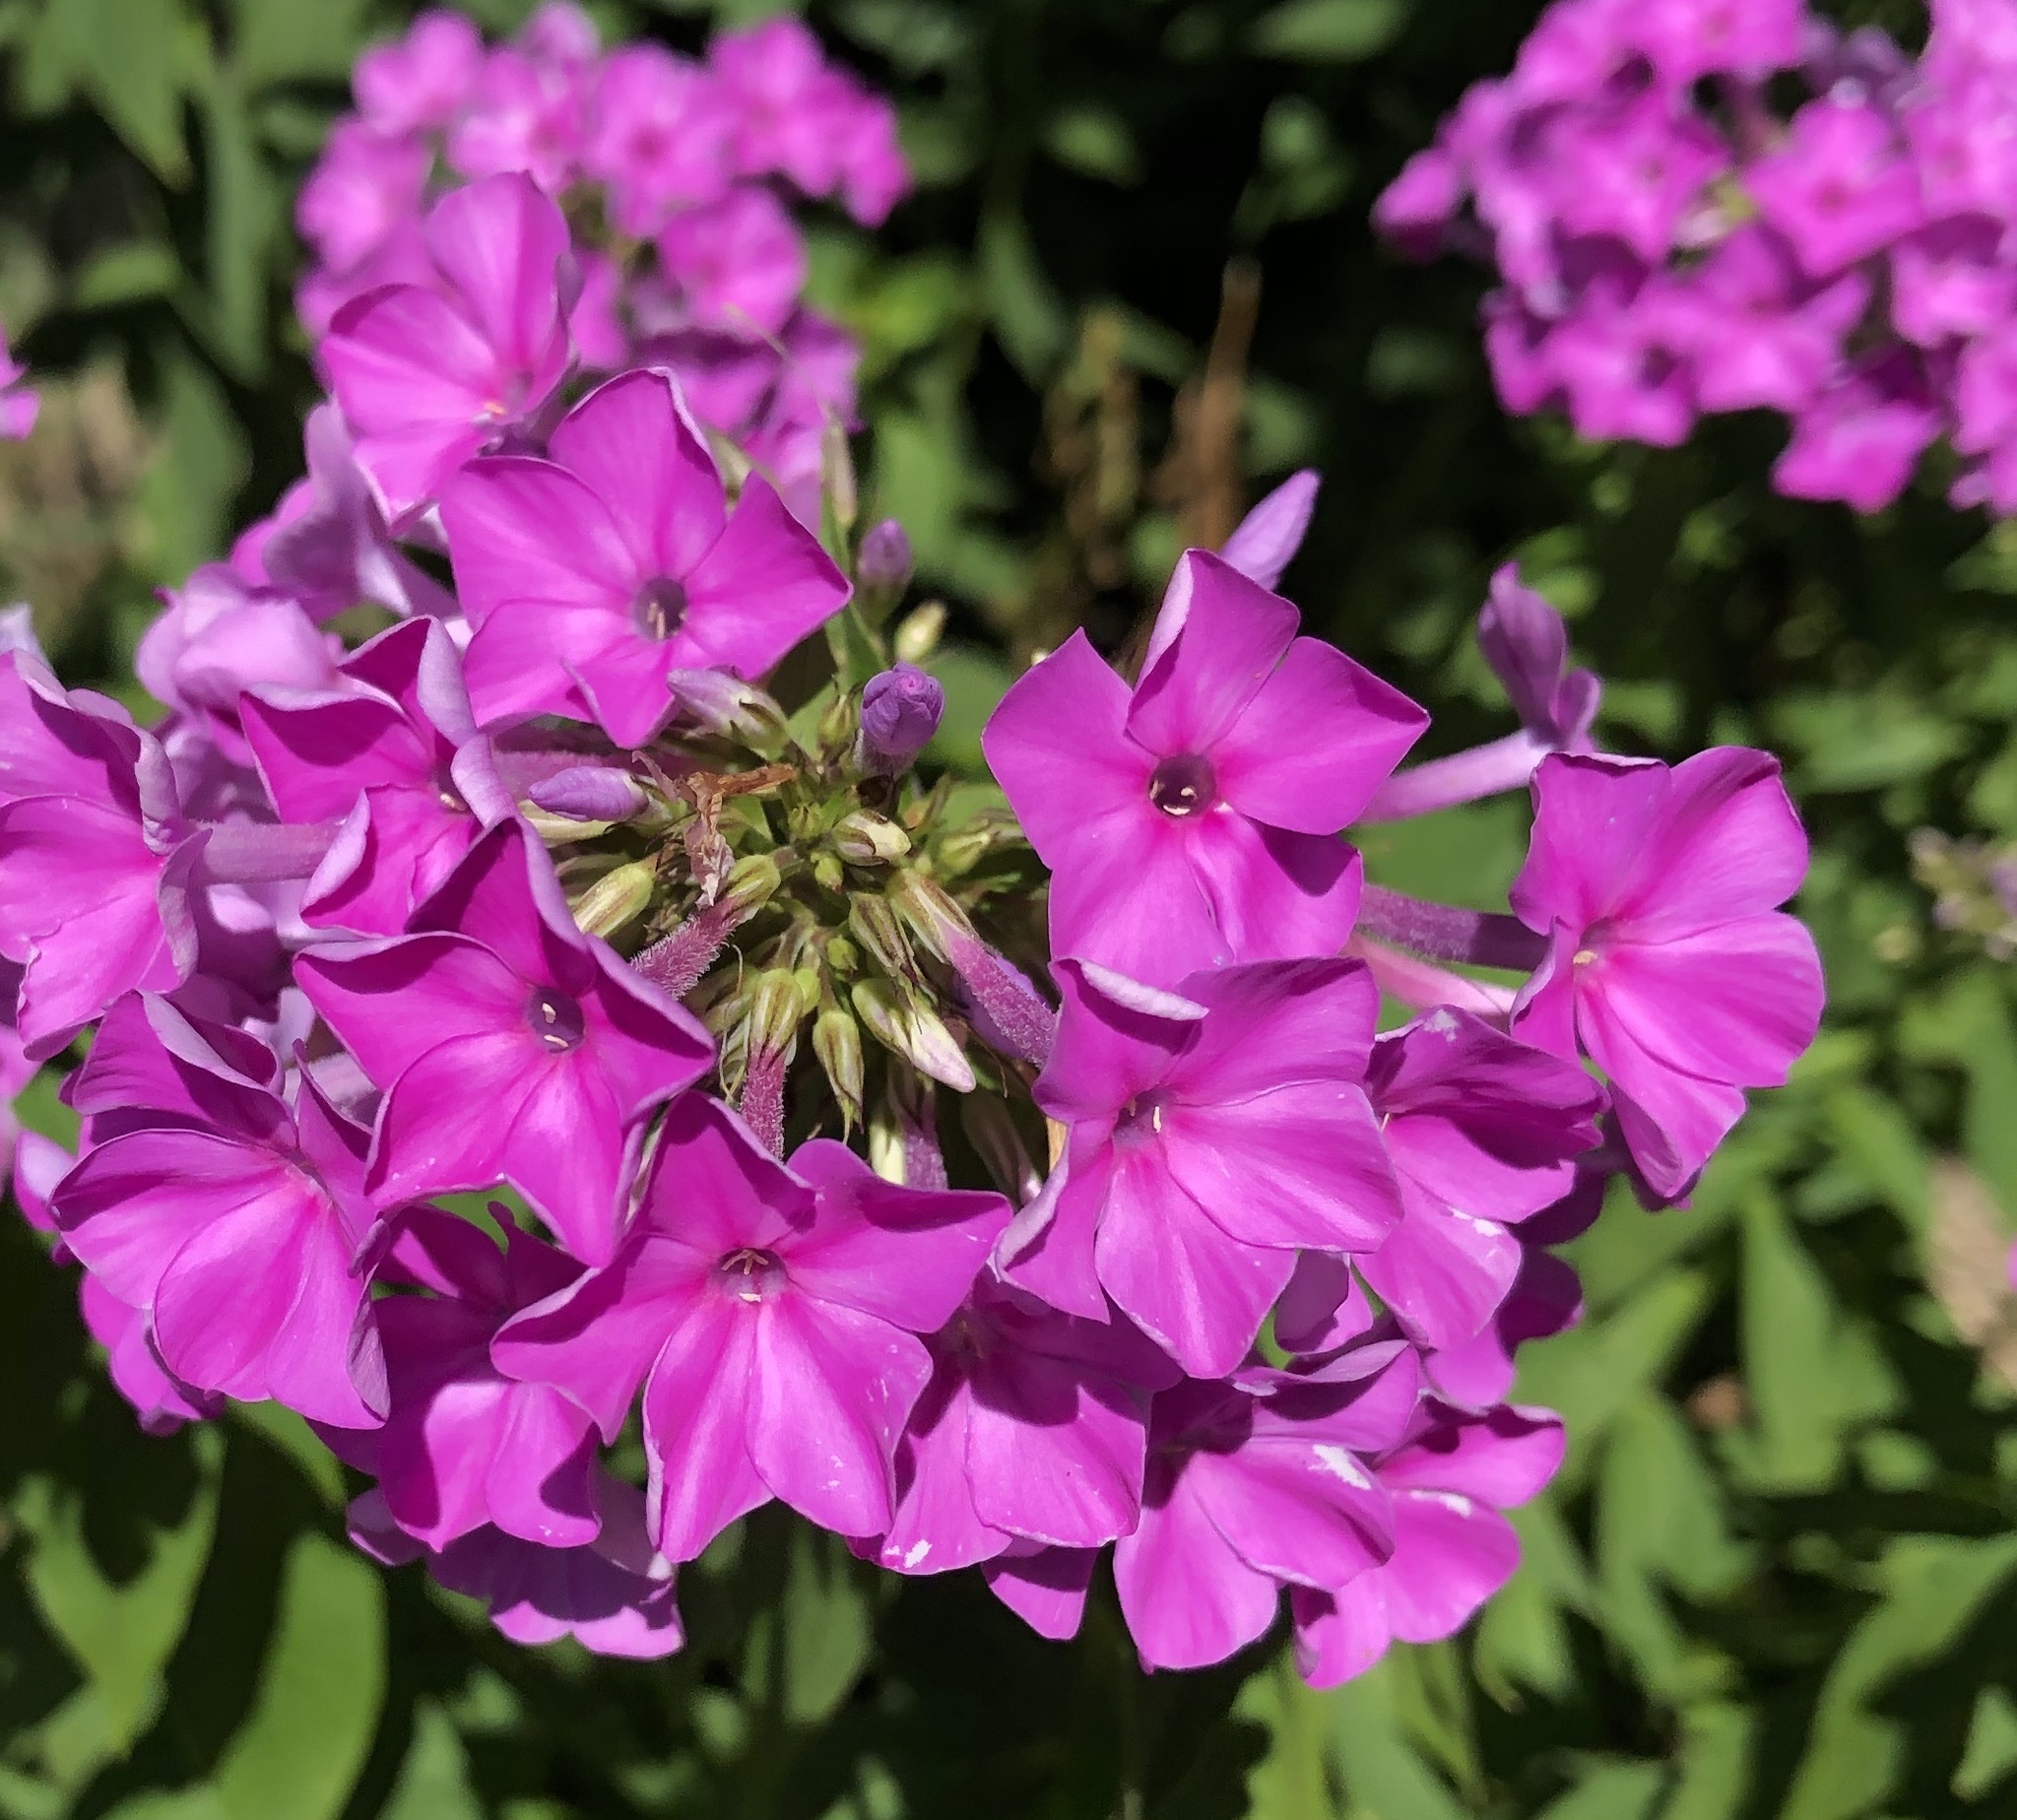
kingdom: Plantae
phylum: Tracheophyta
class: Magnoliopsida
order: Ericales
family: Polemoniaceae
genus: Phlox
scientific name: Phlox paniculata
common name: Fall phlox
